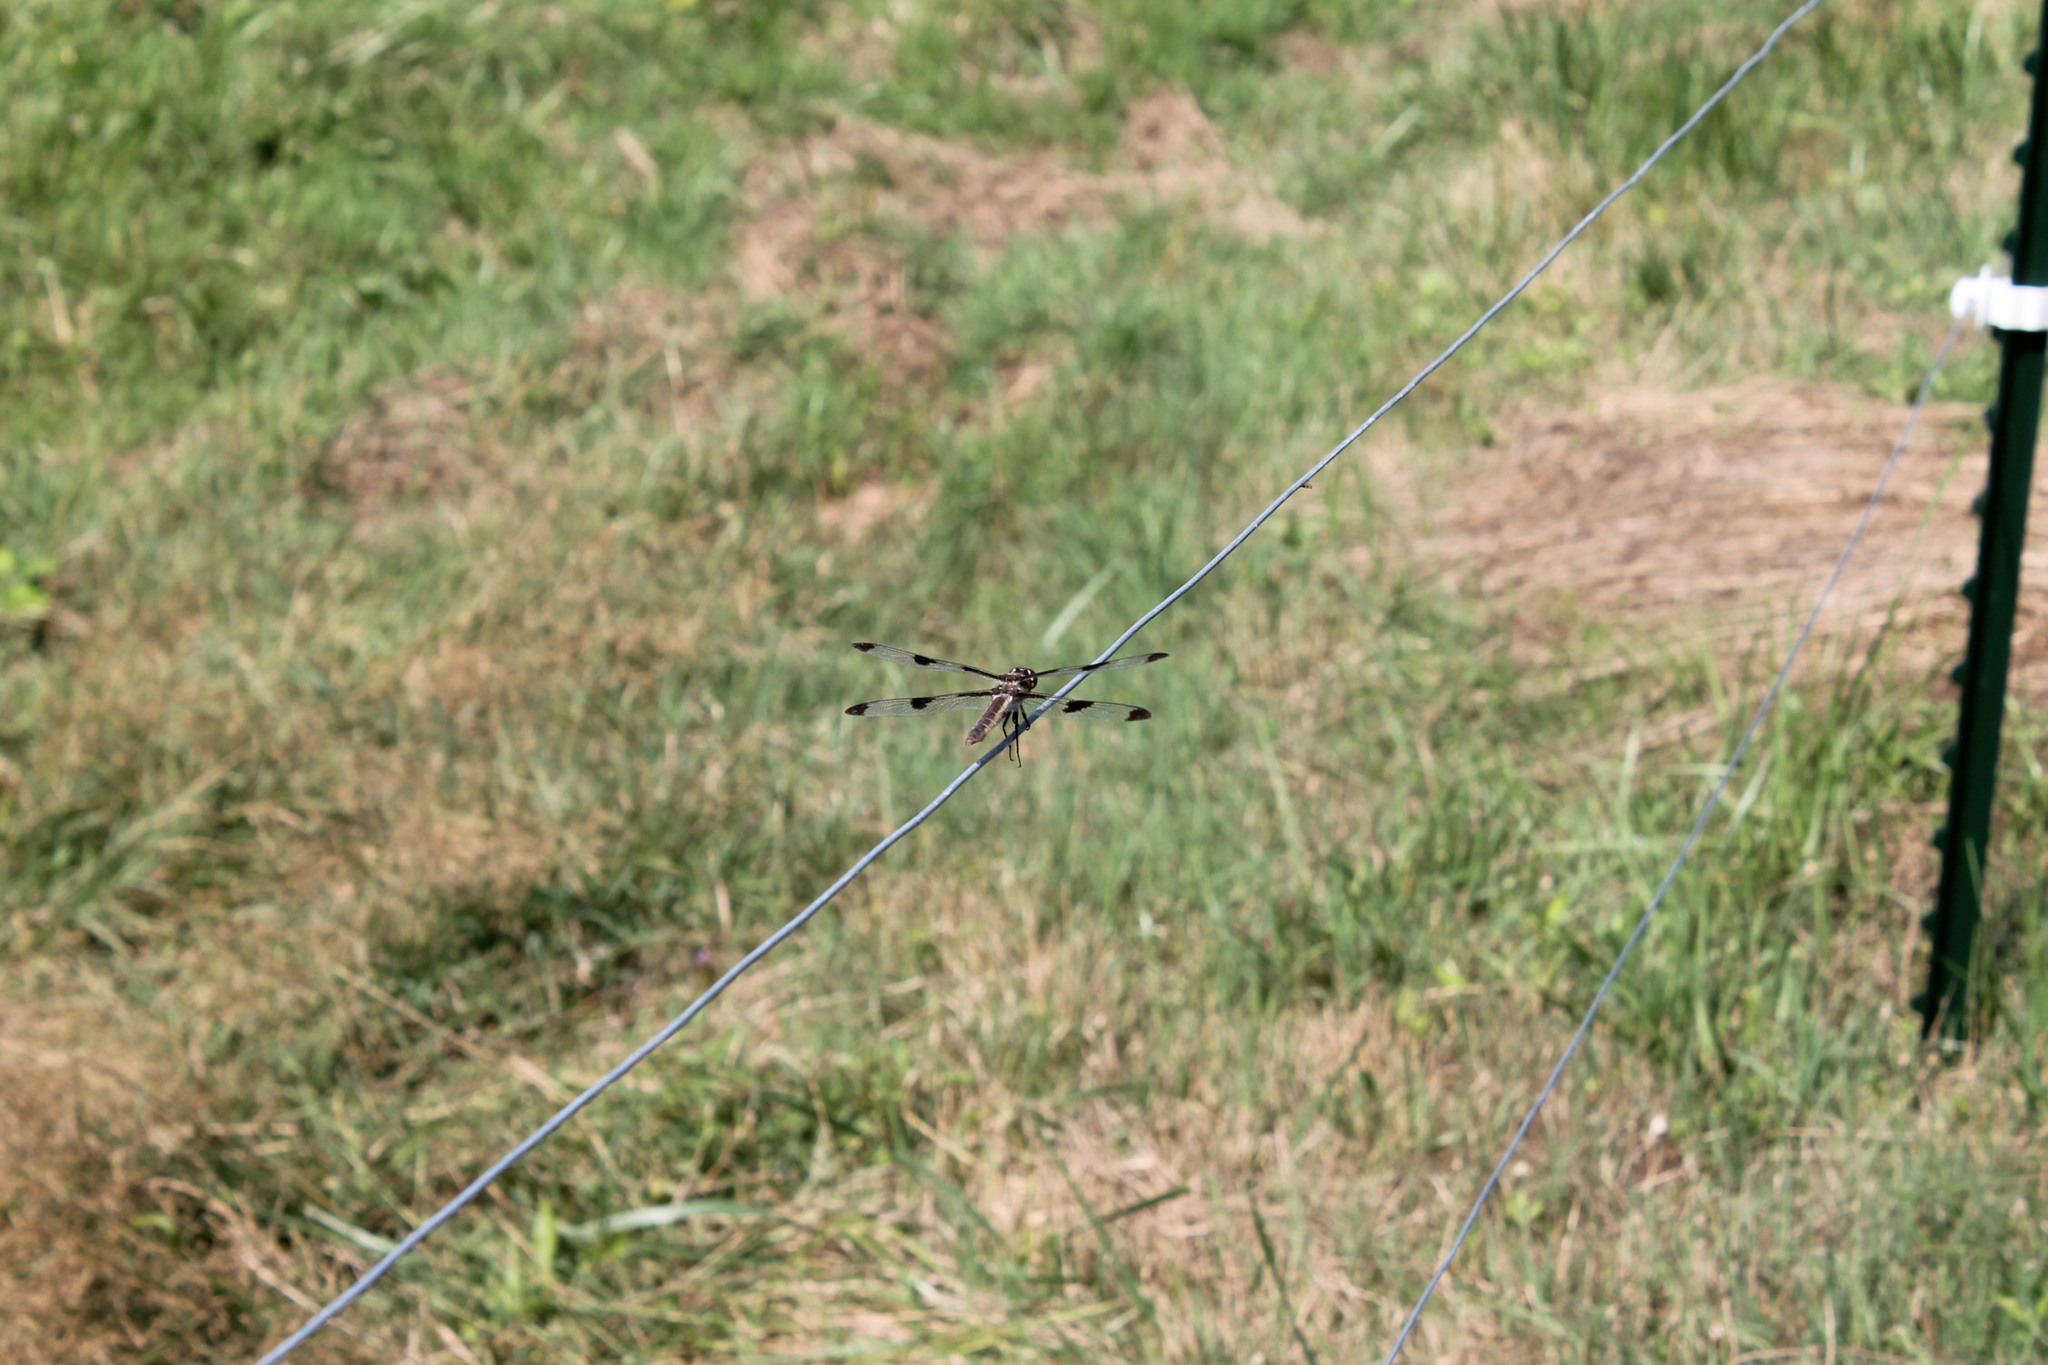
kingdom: Animalia
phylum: Arthropoda
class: Insecta
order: Odonata
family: Libellulidae
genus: Libellula
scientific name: Libellula pulchella
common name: Twelve-spotted skimmer
